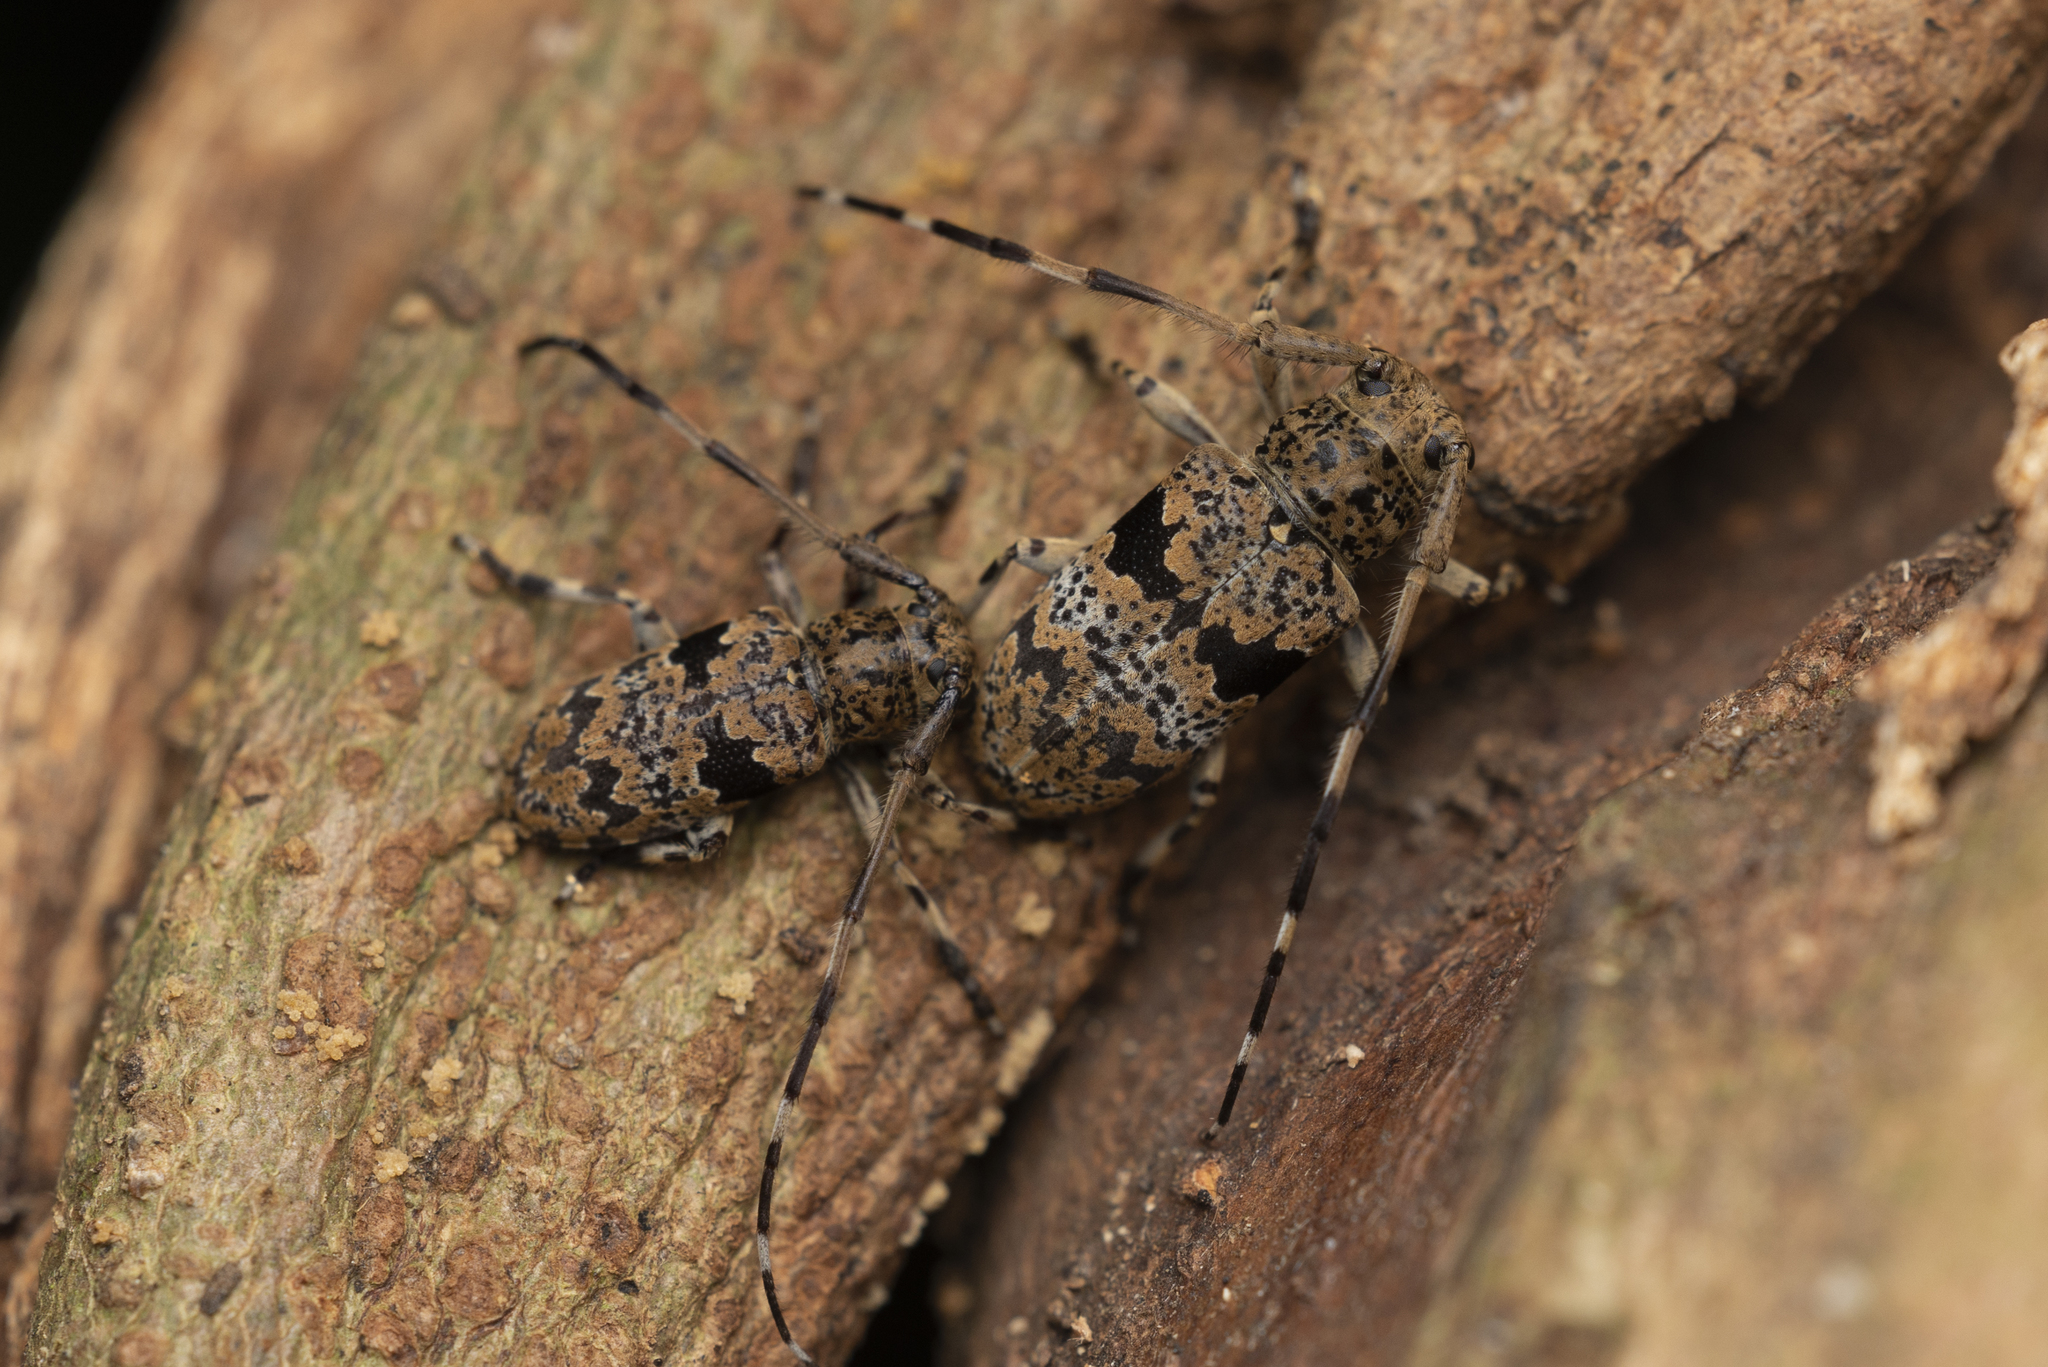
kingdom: Animalia
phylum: Arthropoda
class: Insecta
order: Coleoptera
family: Cerambycidae
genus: Mesosa
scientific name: Mesosa rupta
